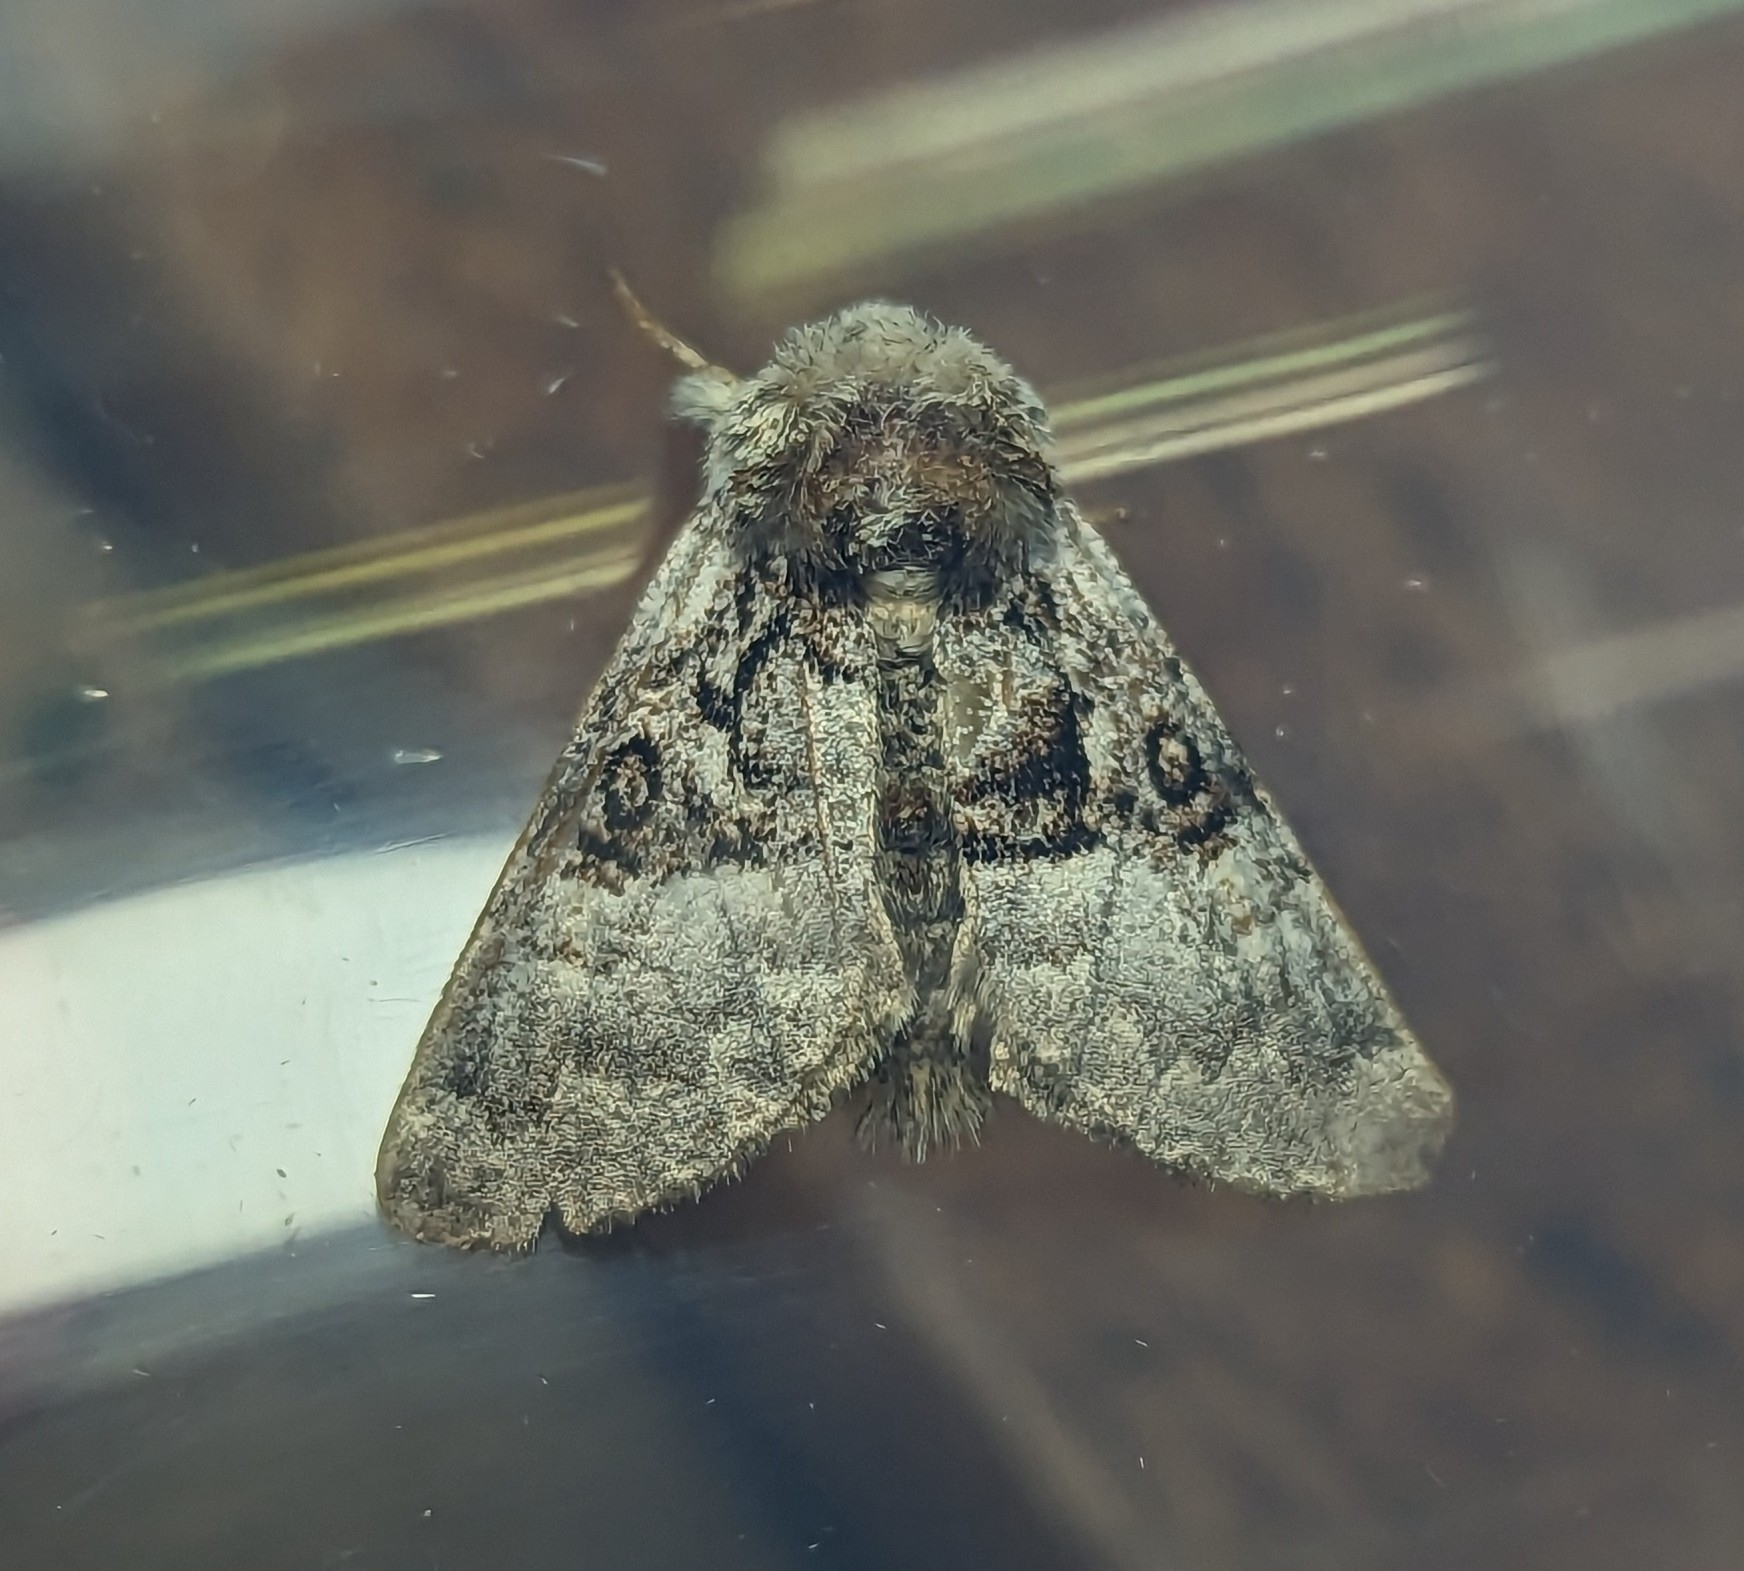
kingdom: Animalia
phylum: Arthropoda
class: Insecta
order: Lepidoptera
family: Noctuidae
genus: Colocasia
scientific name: Colocasia coryli
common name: Nut-tree tussock
